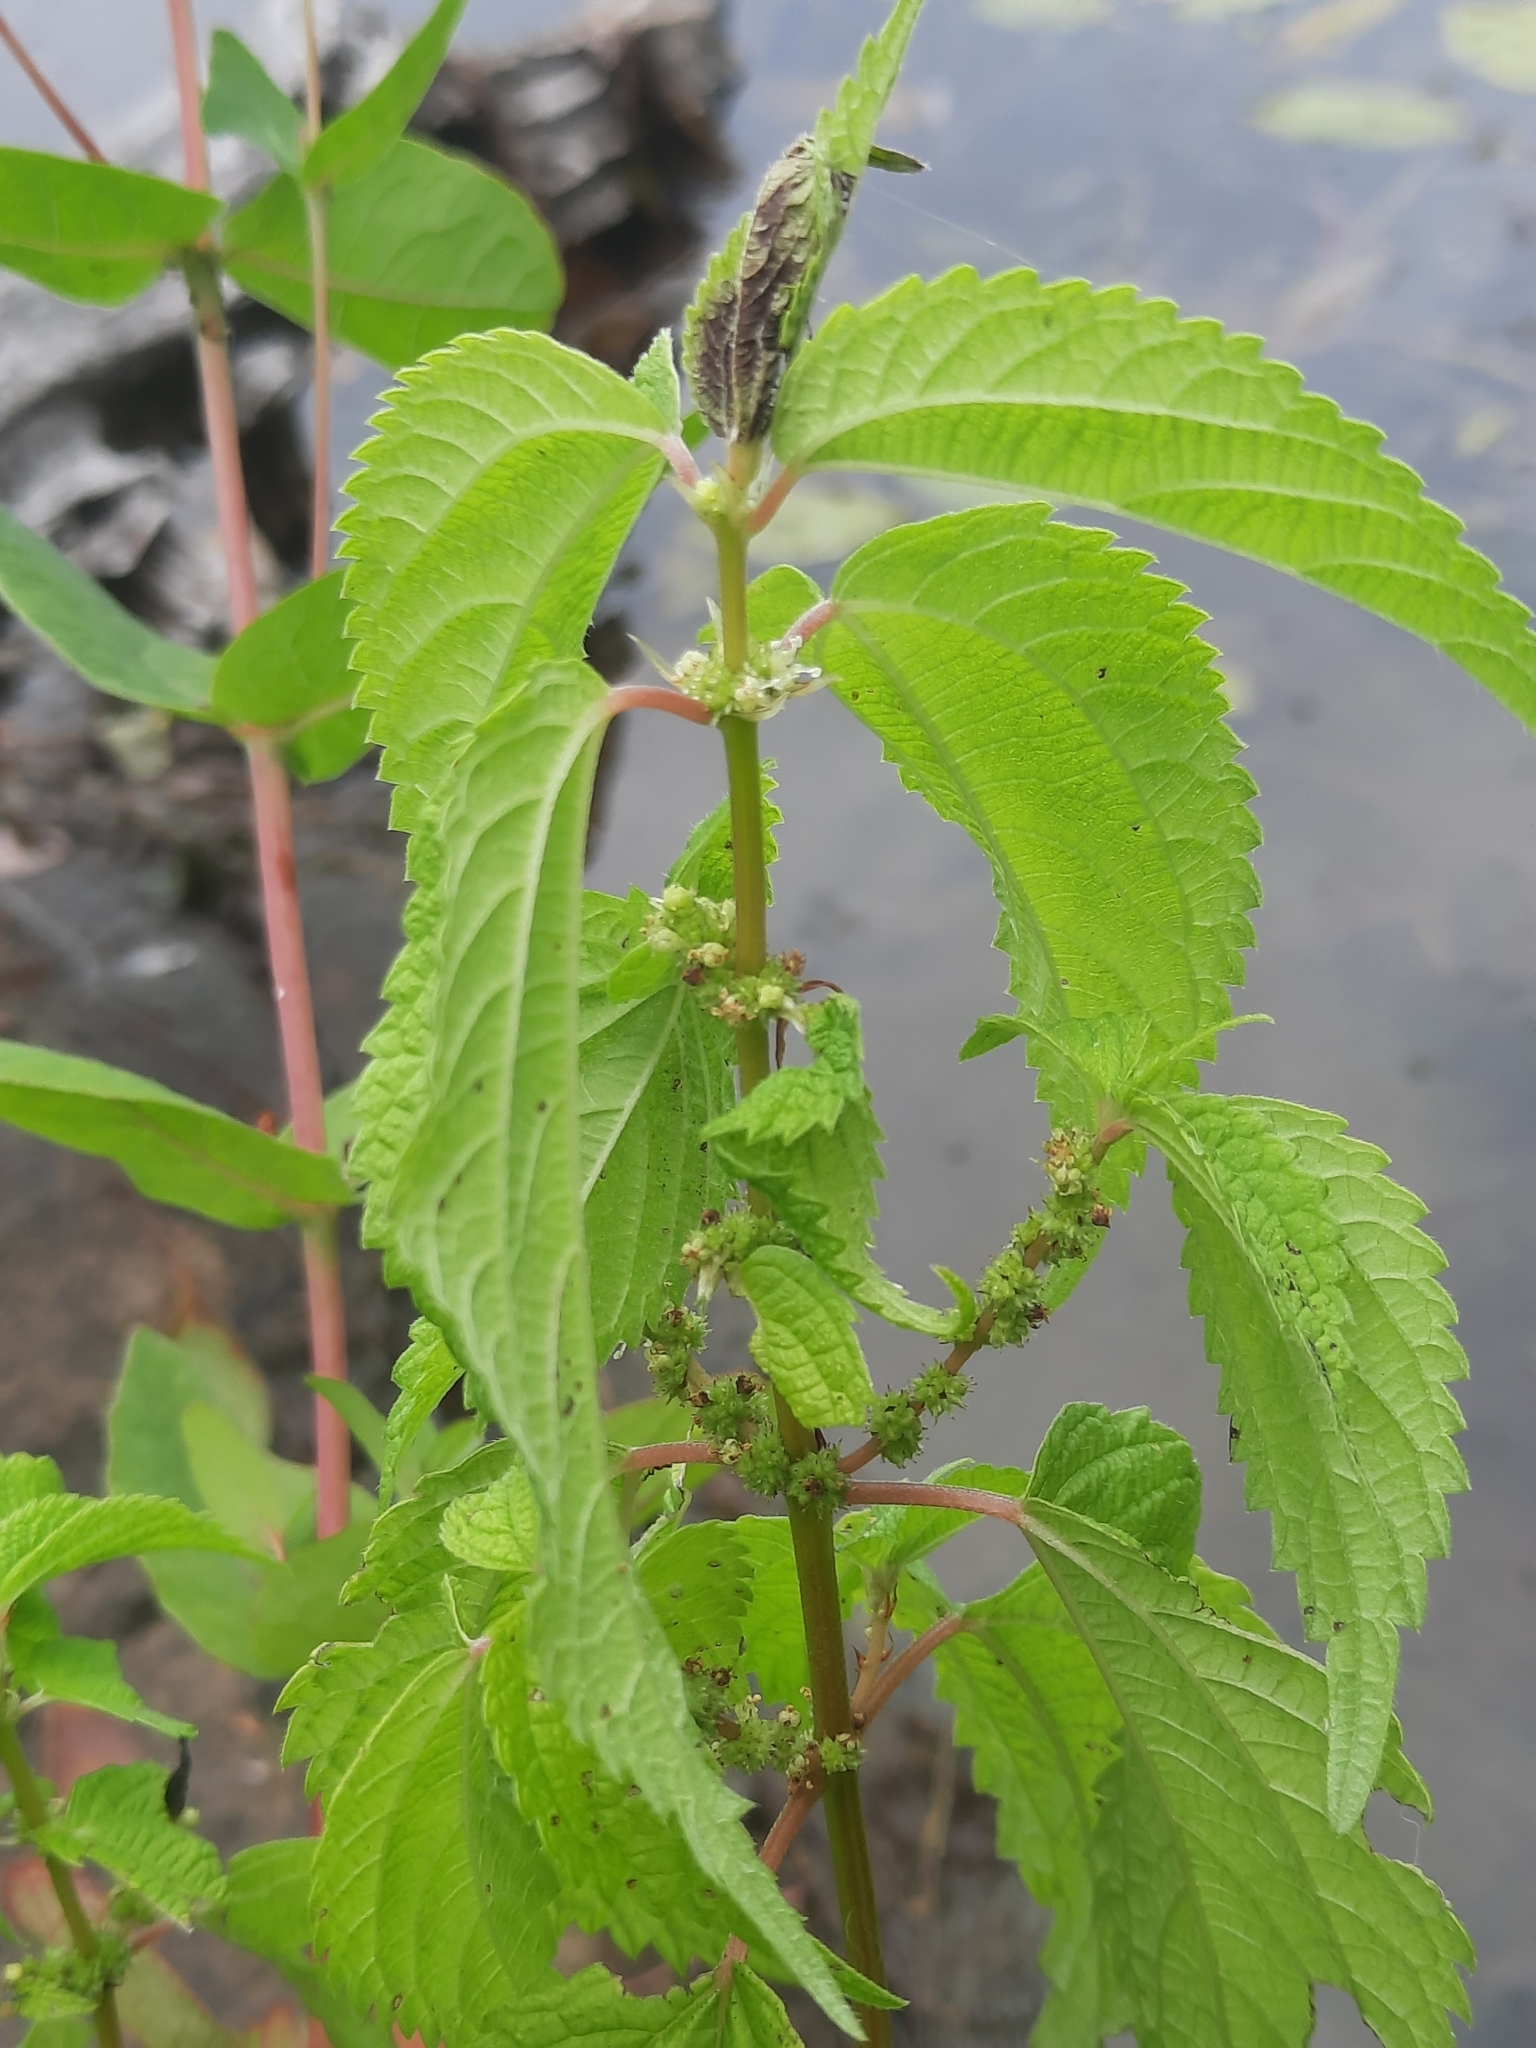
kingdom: Plantae
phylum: Tracheophyta
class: Magnoliopsida
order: Rosales
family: Urticaceae
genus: Boehmeria
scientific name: Boehmeria cylindrica
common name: Bog-hemp
